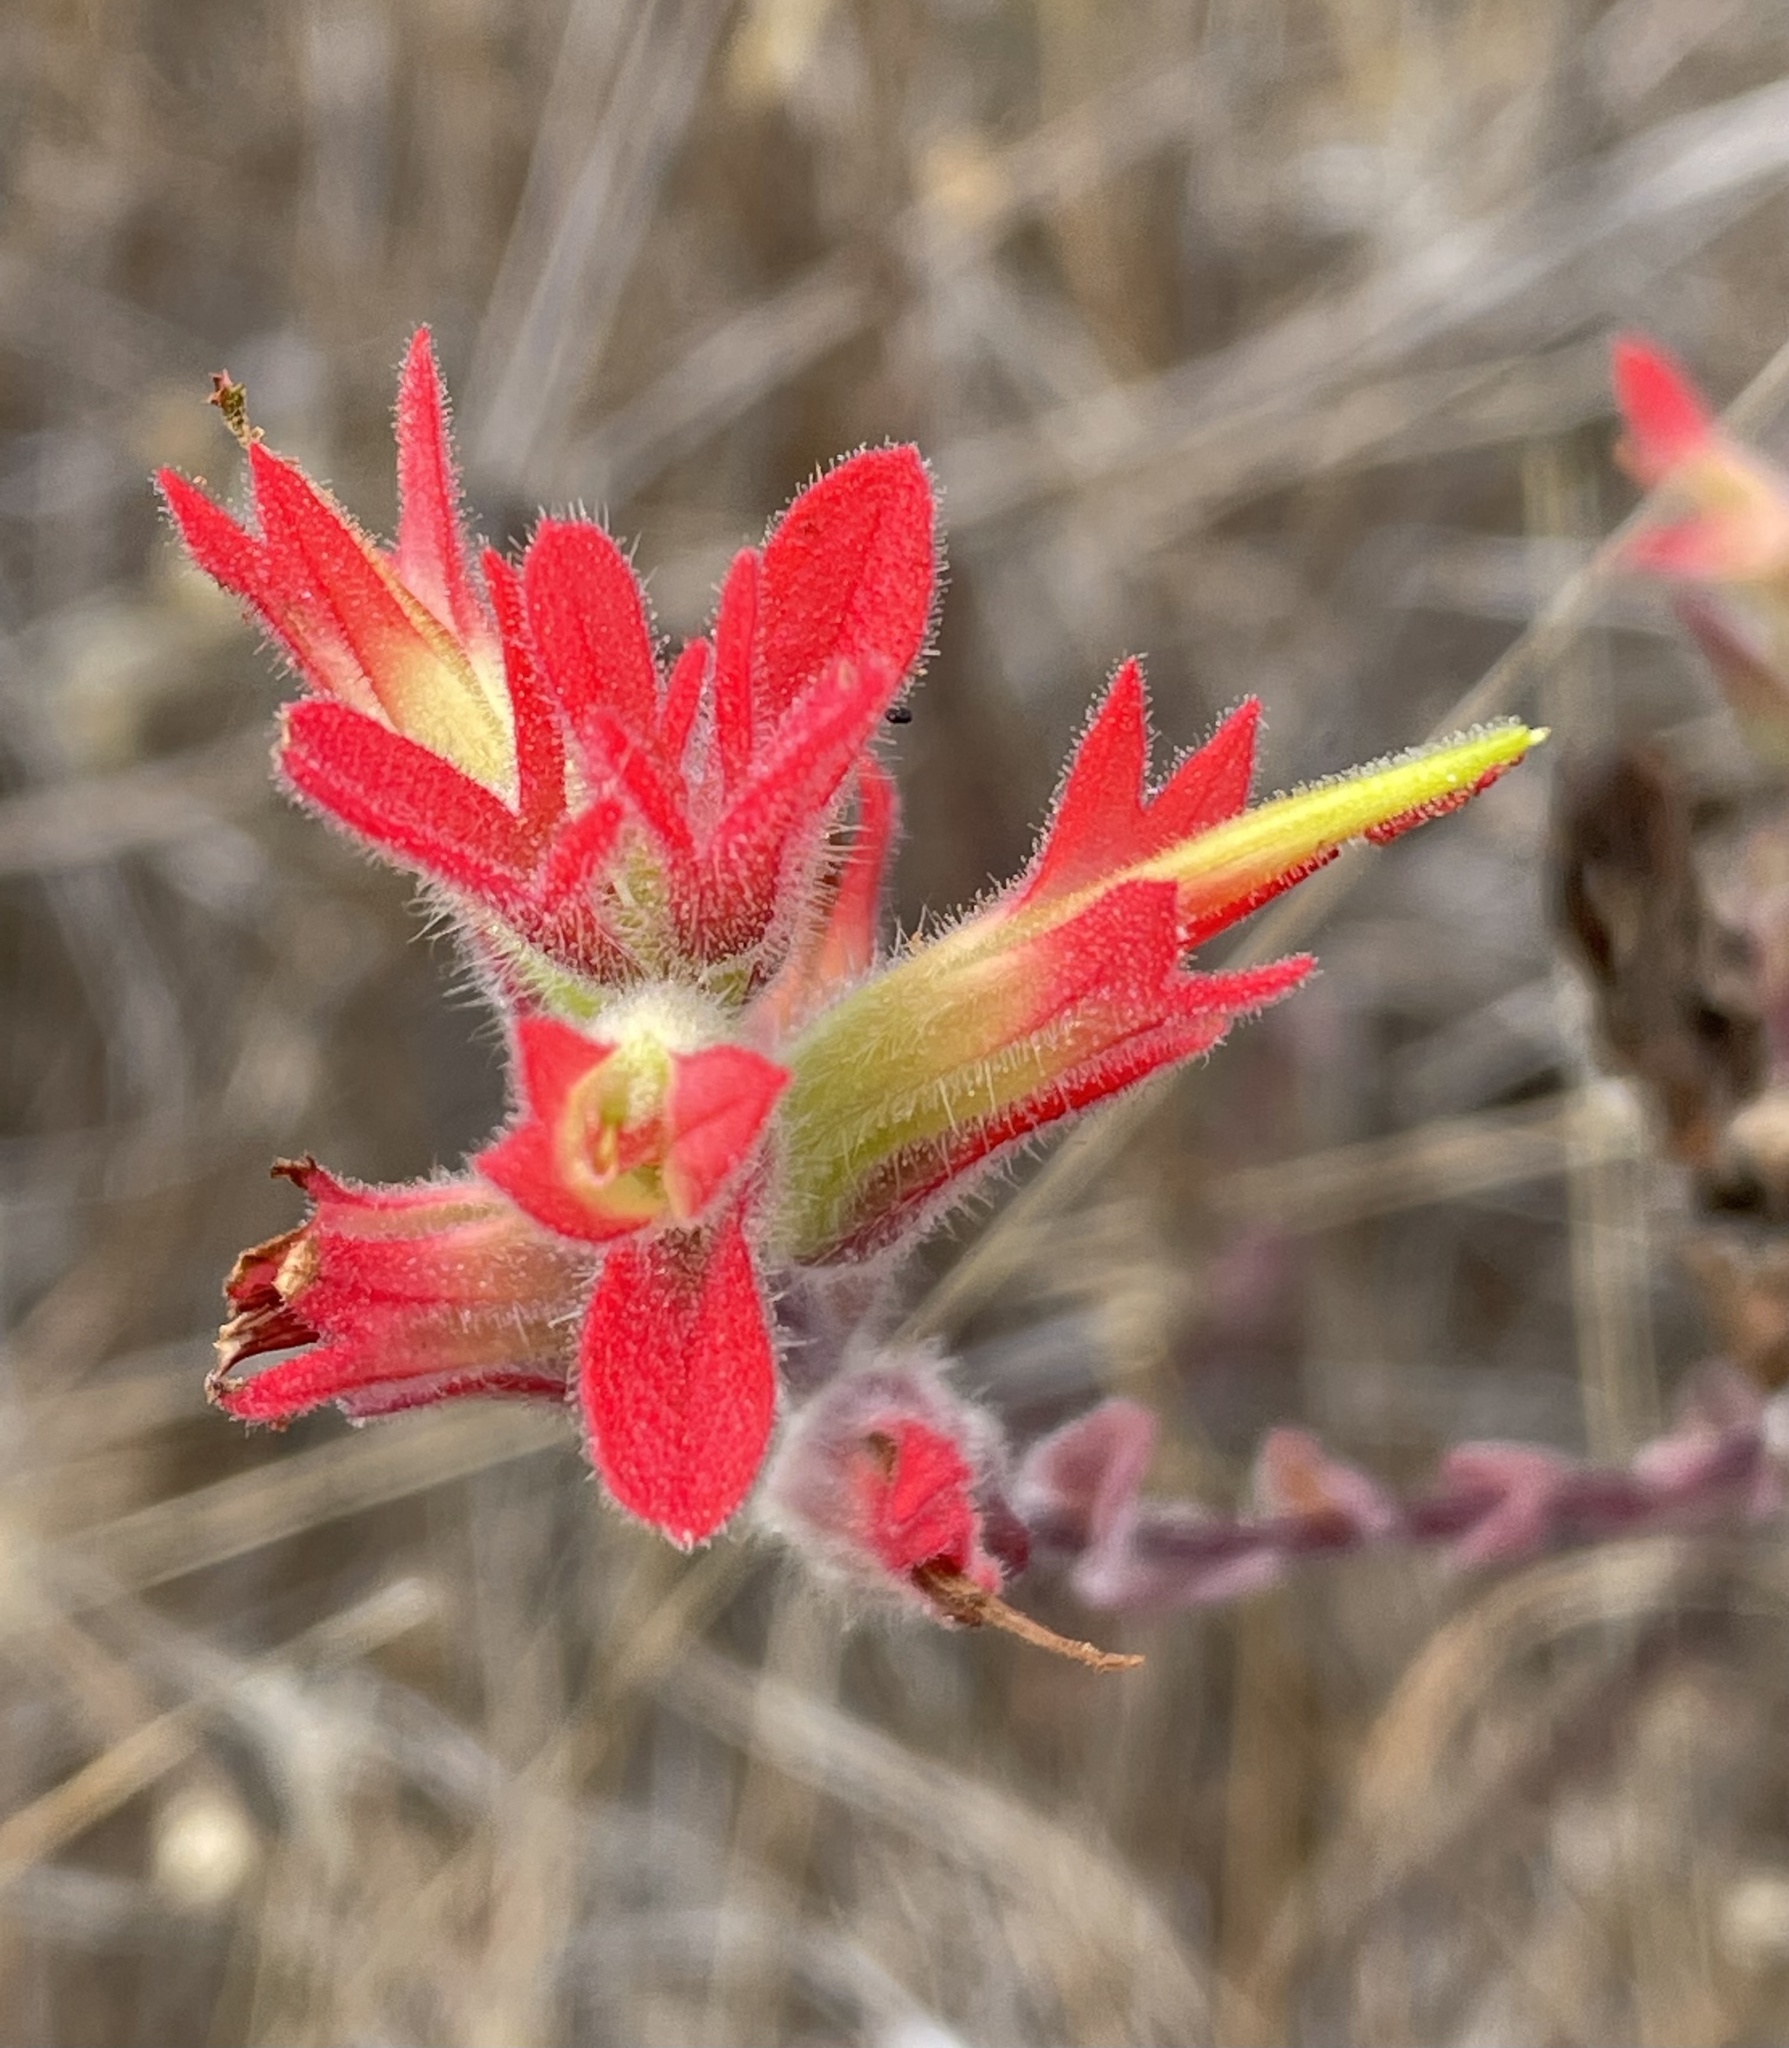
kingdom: Plantae
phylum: Tracheophyta
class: Magnoliopsida
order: Lamiales
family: Orobanchaceae
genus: Castilleja
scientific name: Castilleja affinis
